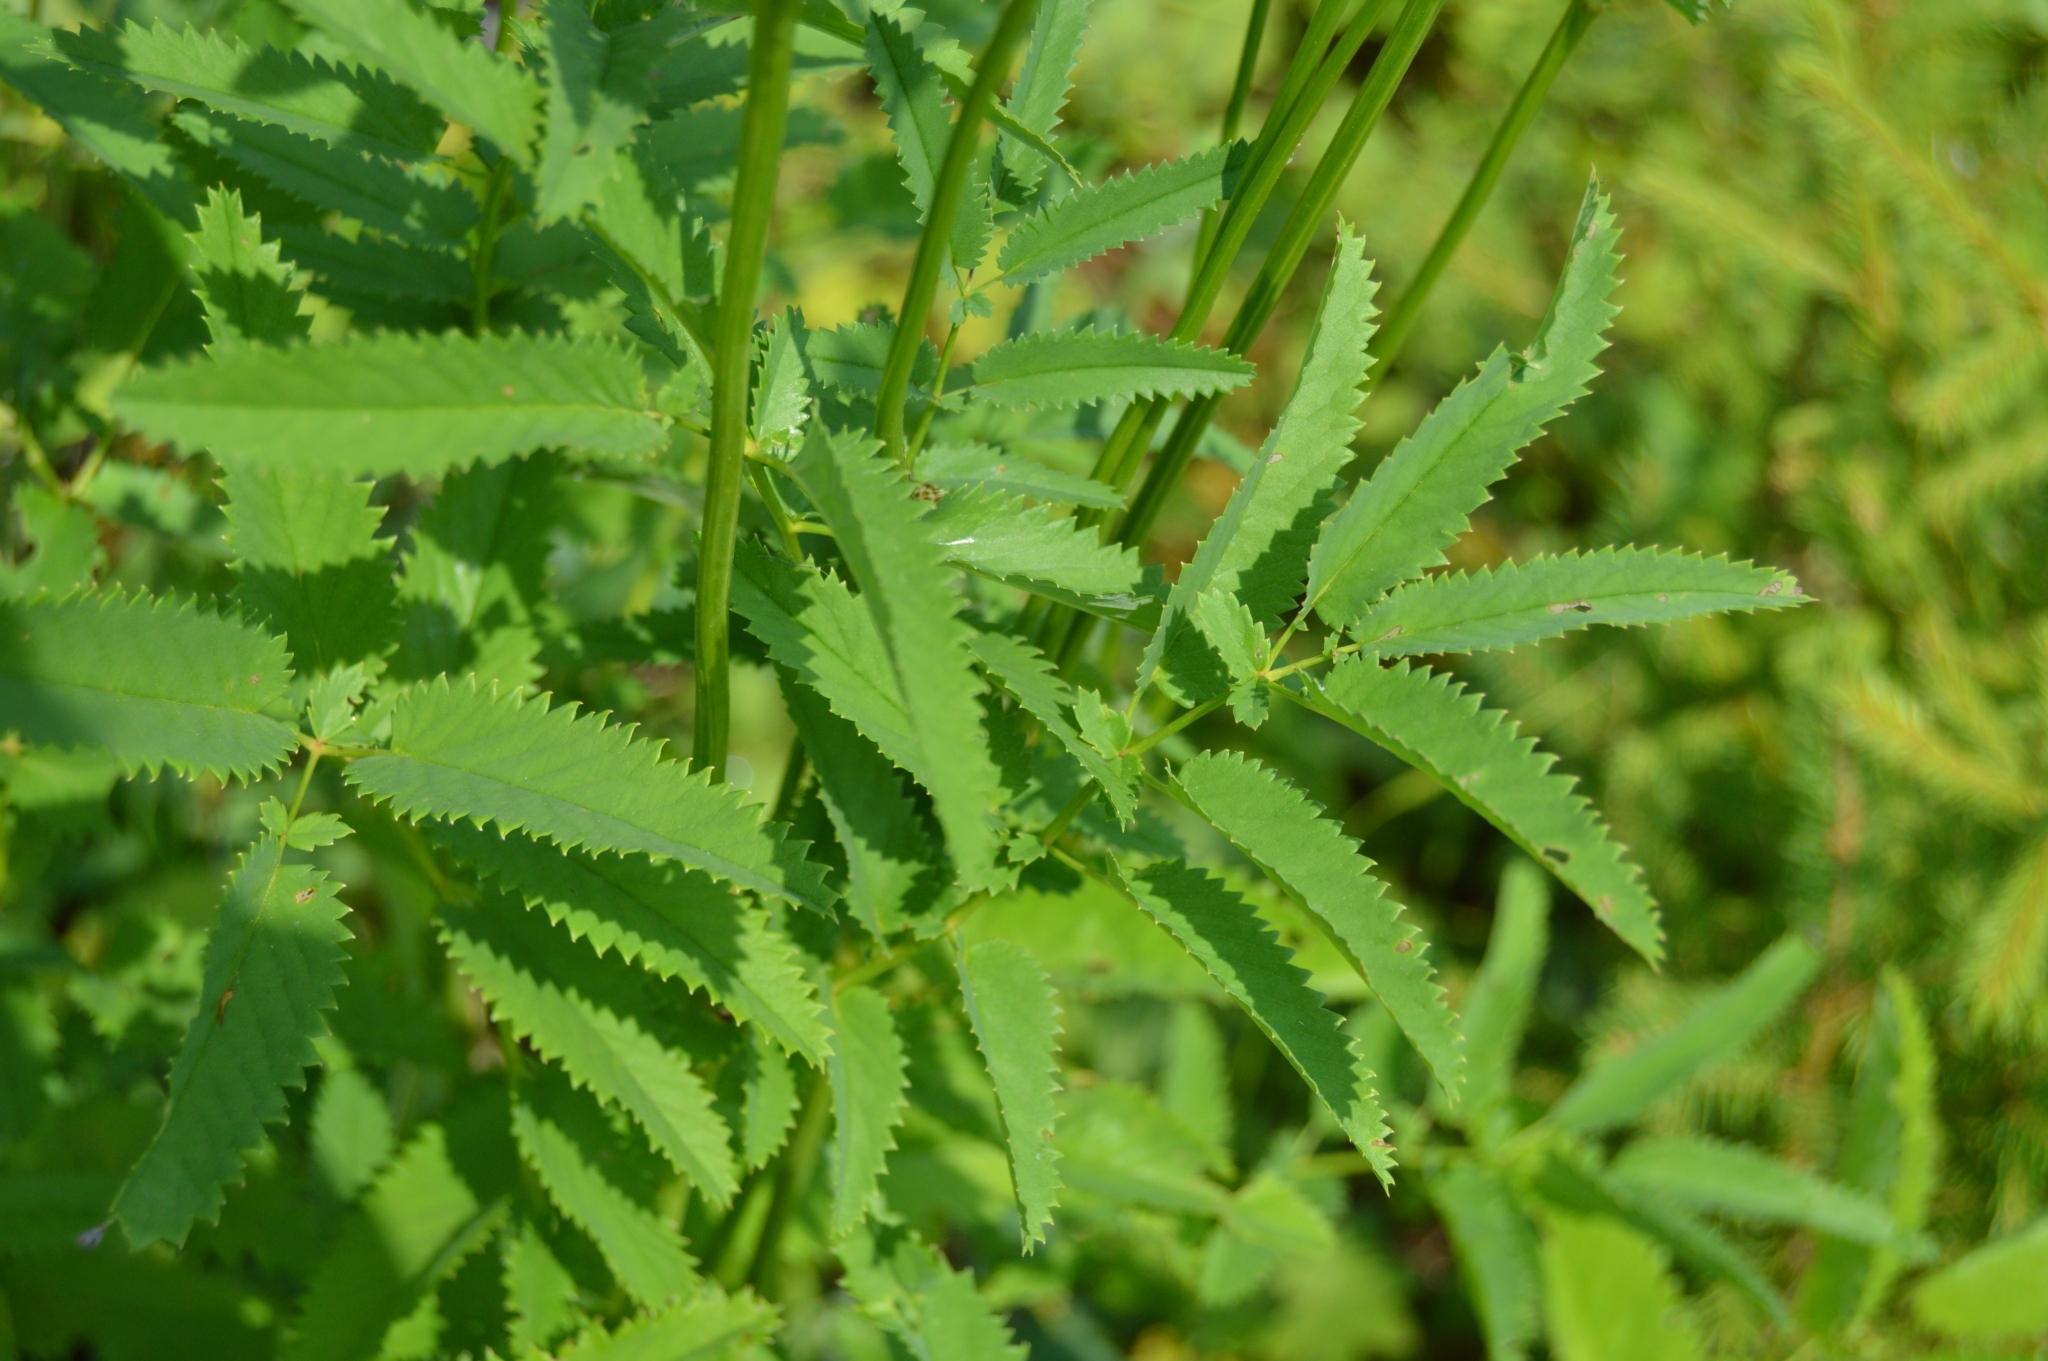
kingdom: Plantae
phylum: Tracheophyta
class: Magnoliopsida
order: Rosales
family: Rosaceae
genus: Sanguisorba
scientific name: Sanguisorba officinalis
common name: Great burnet
